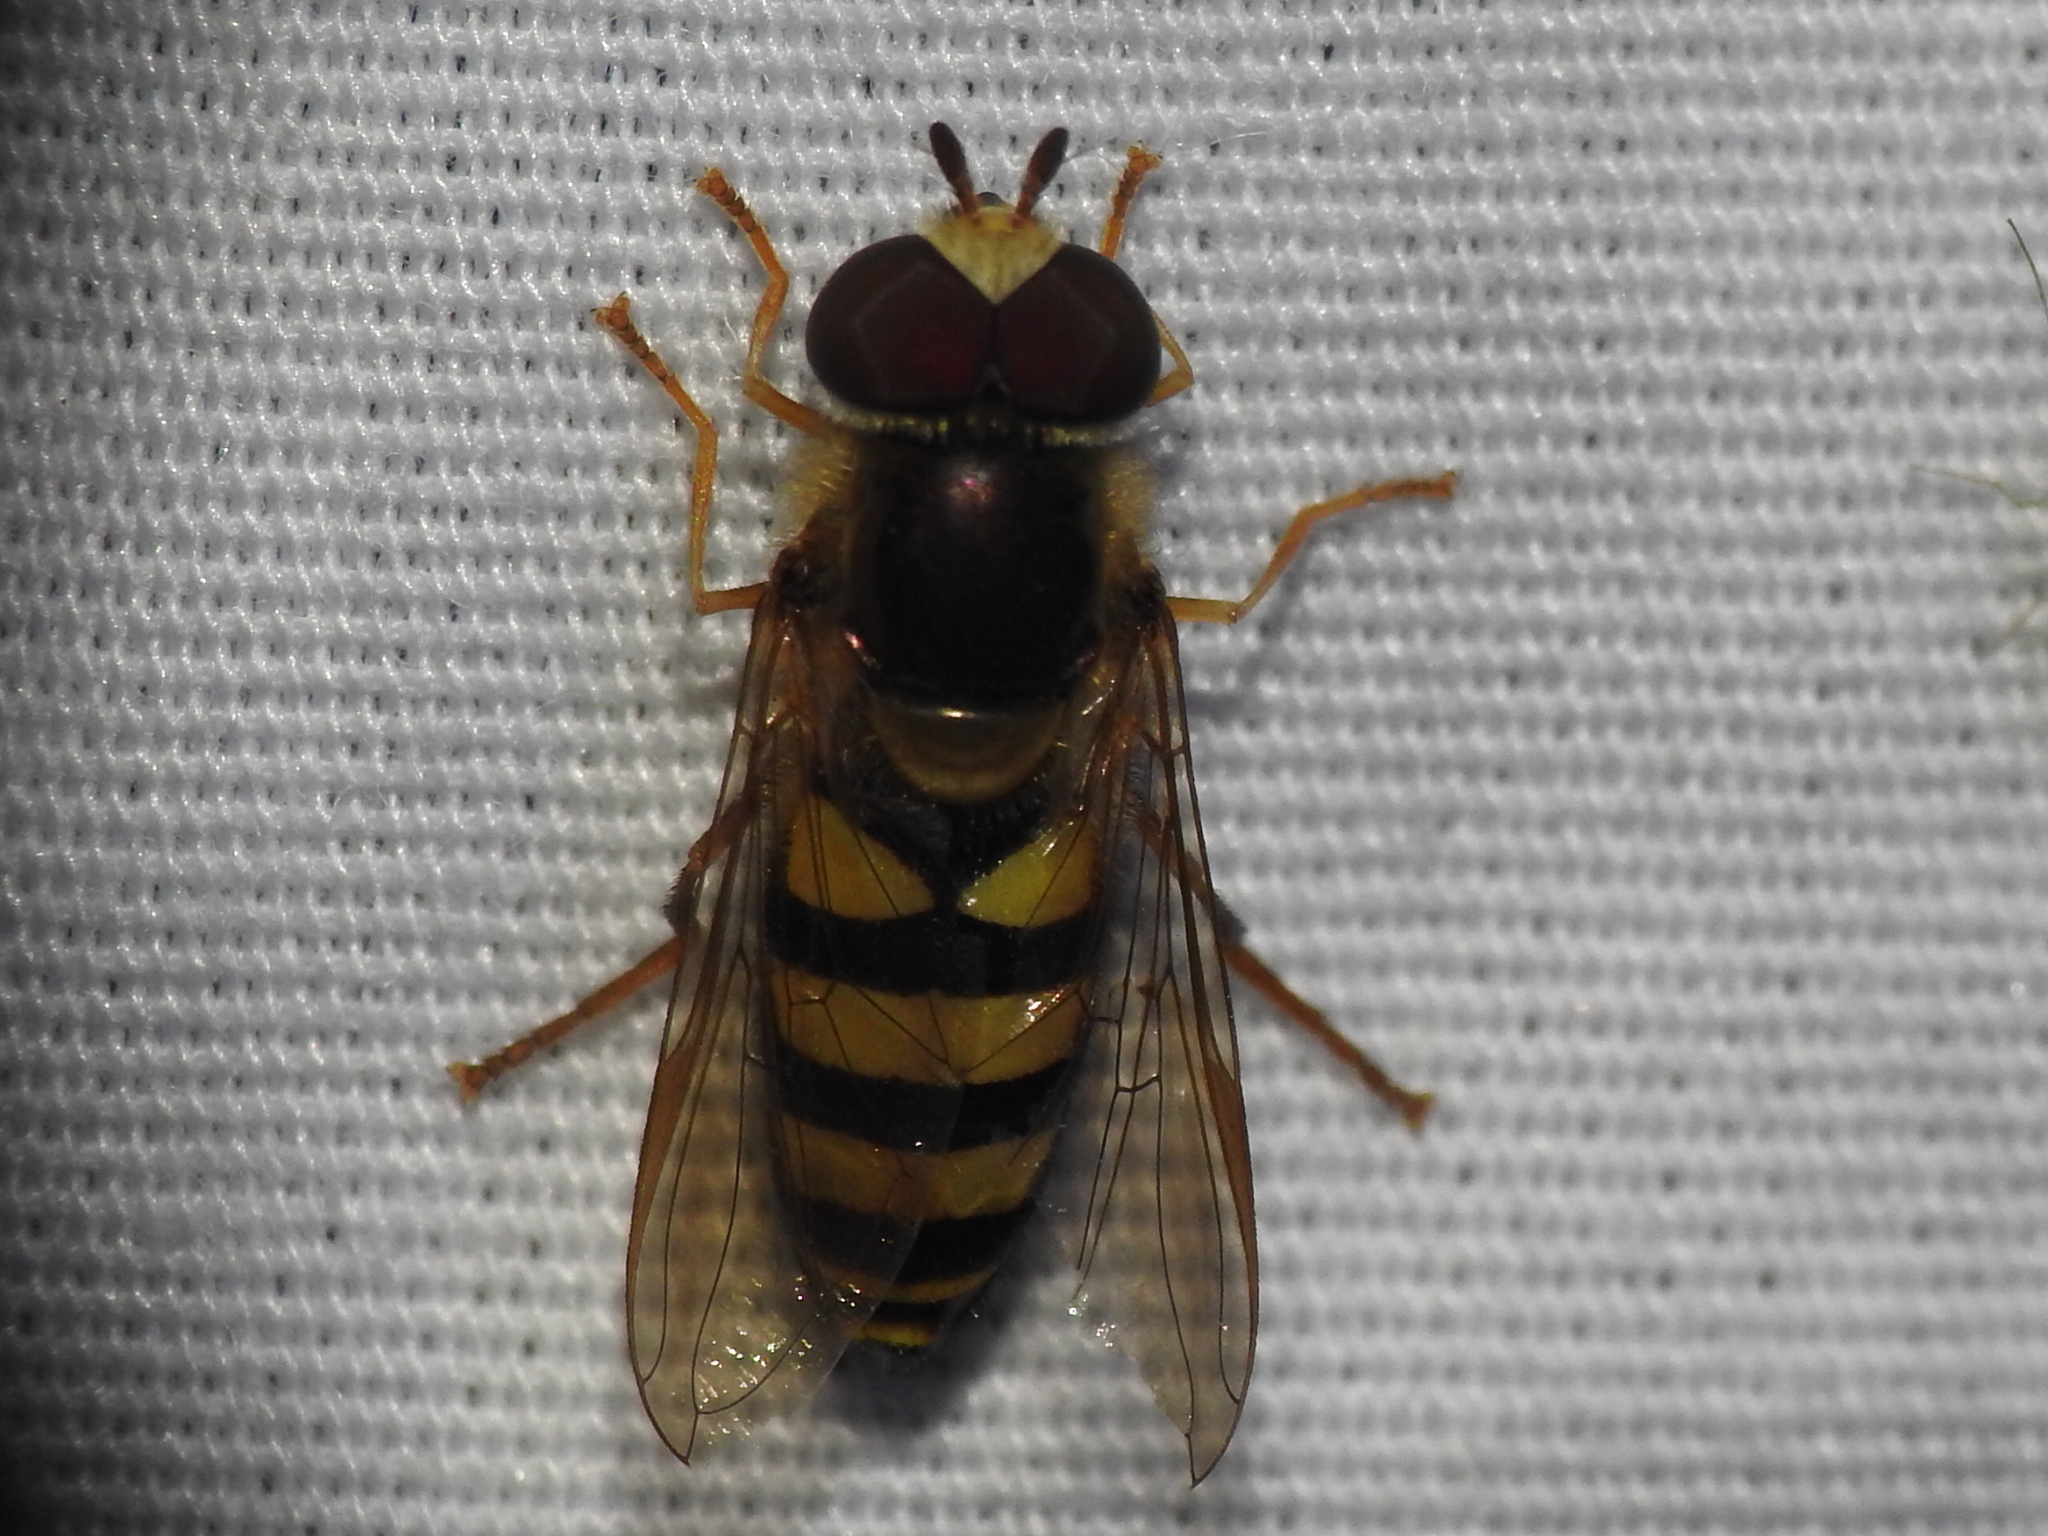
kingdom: Animalia
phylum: Arthropoda
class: Insecta
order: Diptera
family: Syrphidae
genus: Eupeodes
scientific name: Eupeodes
